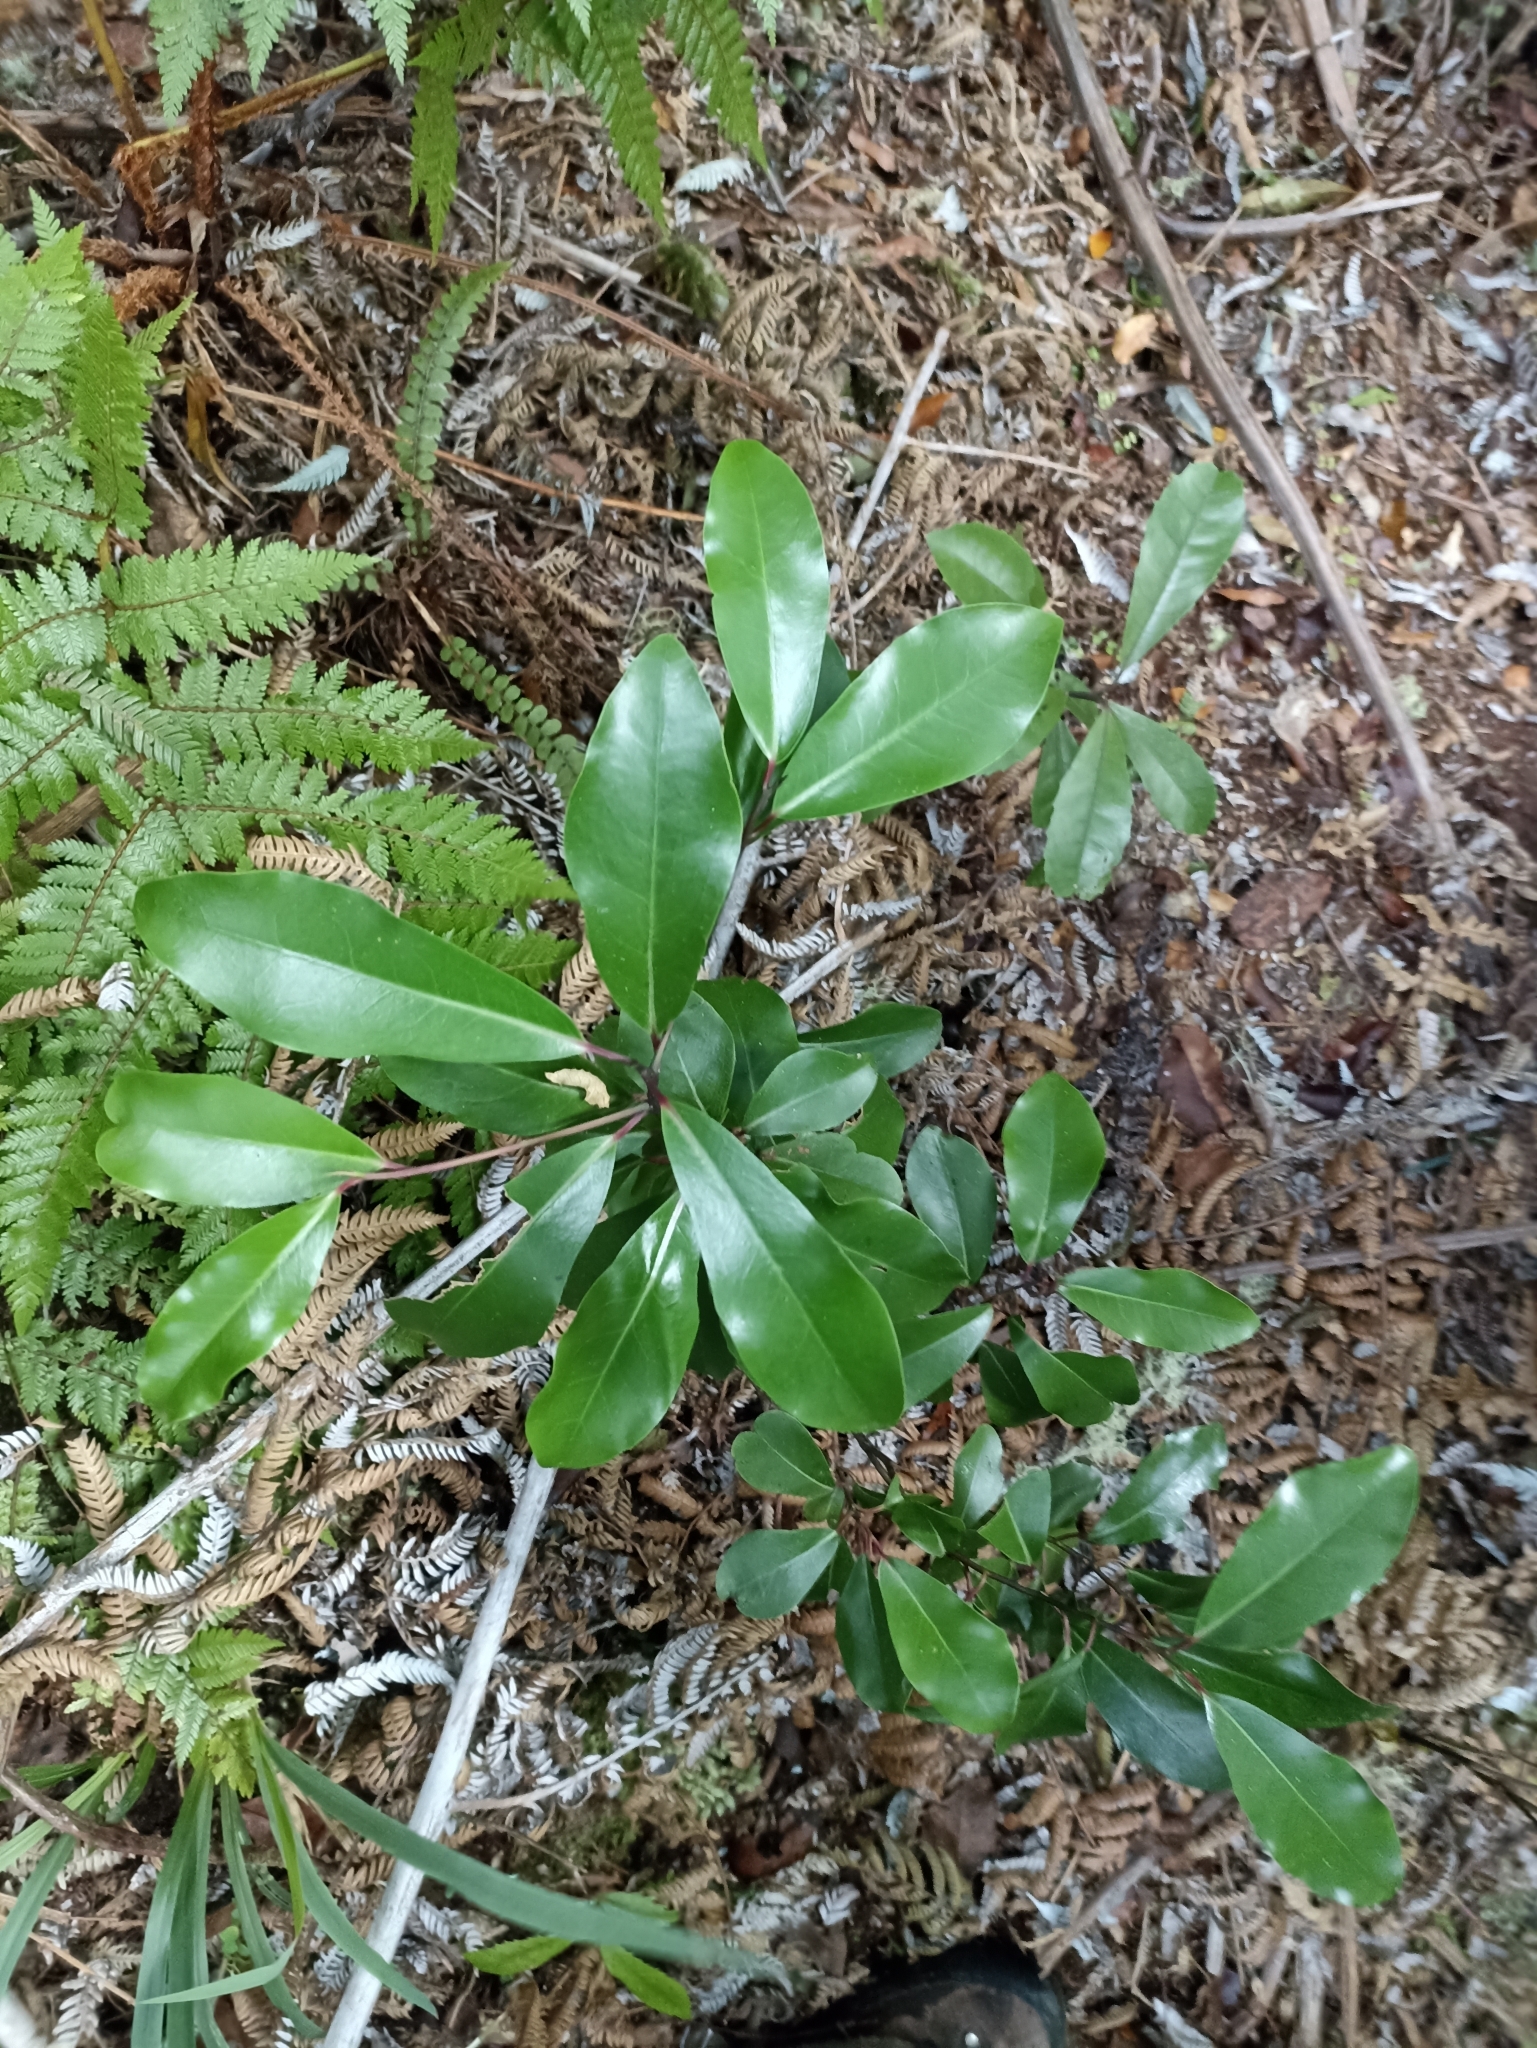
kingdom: Plantae
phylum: Tracheophyta
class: Magnoliopsida
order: Canellales
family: Winteraceae
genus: Pseudowintera
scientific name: Pseudowintera axillaris
